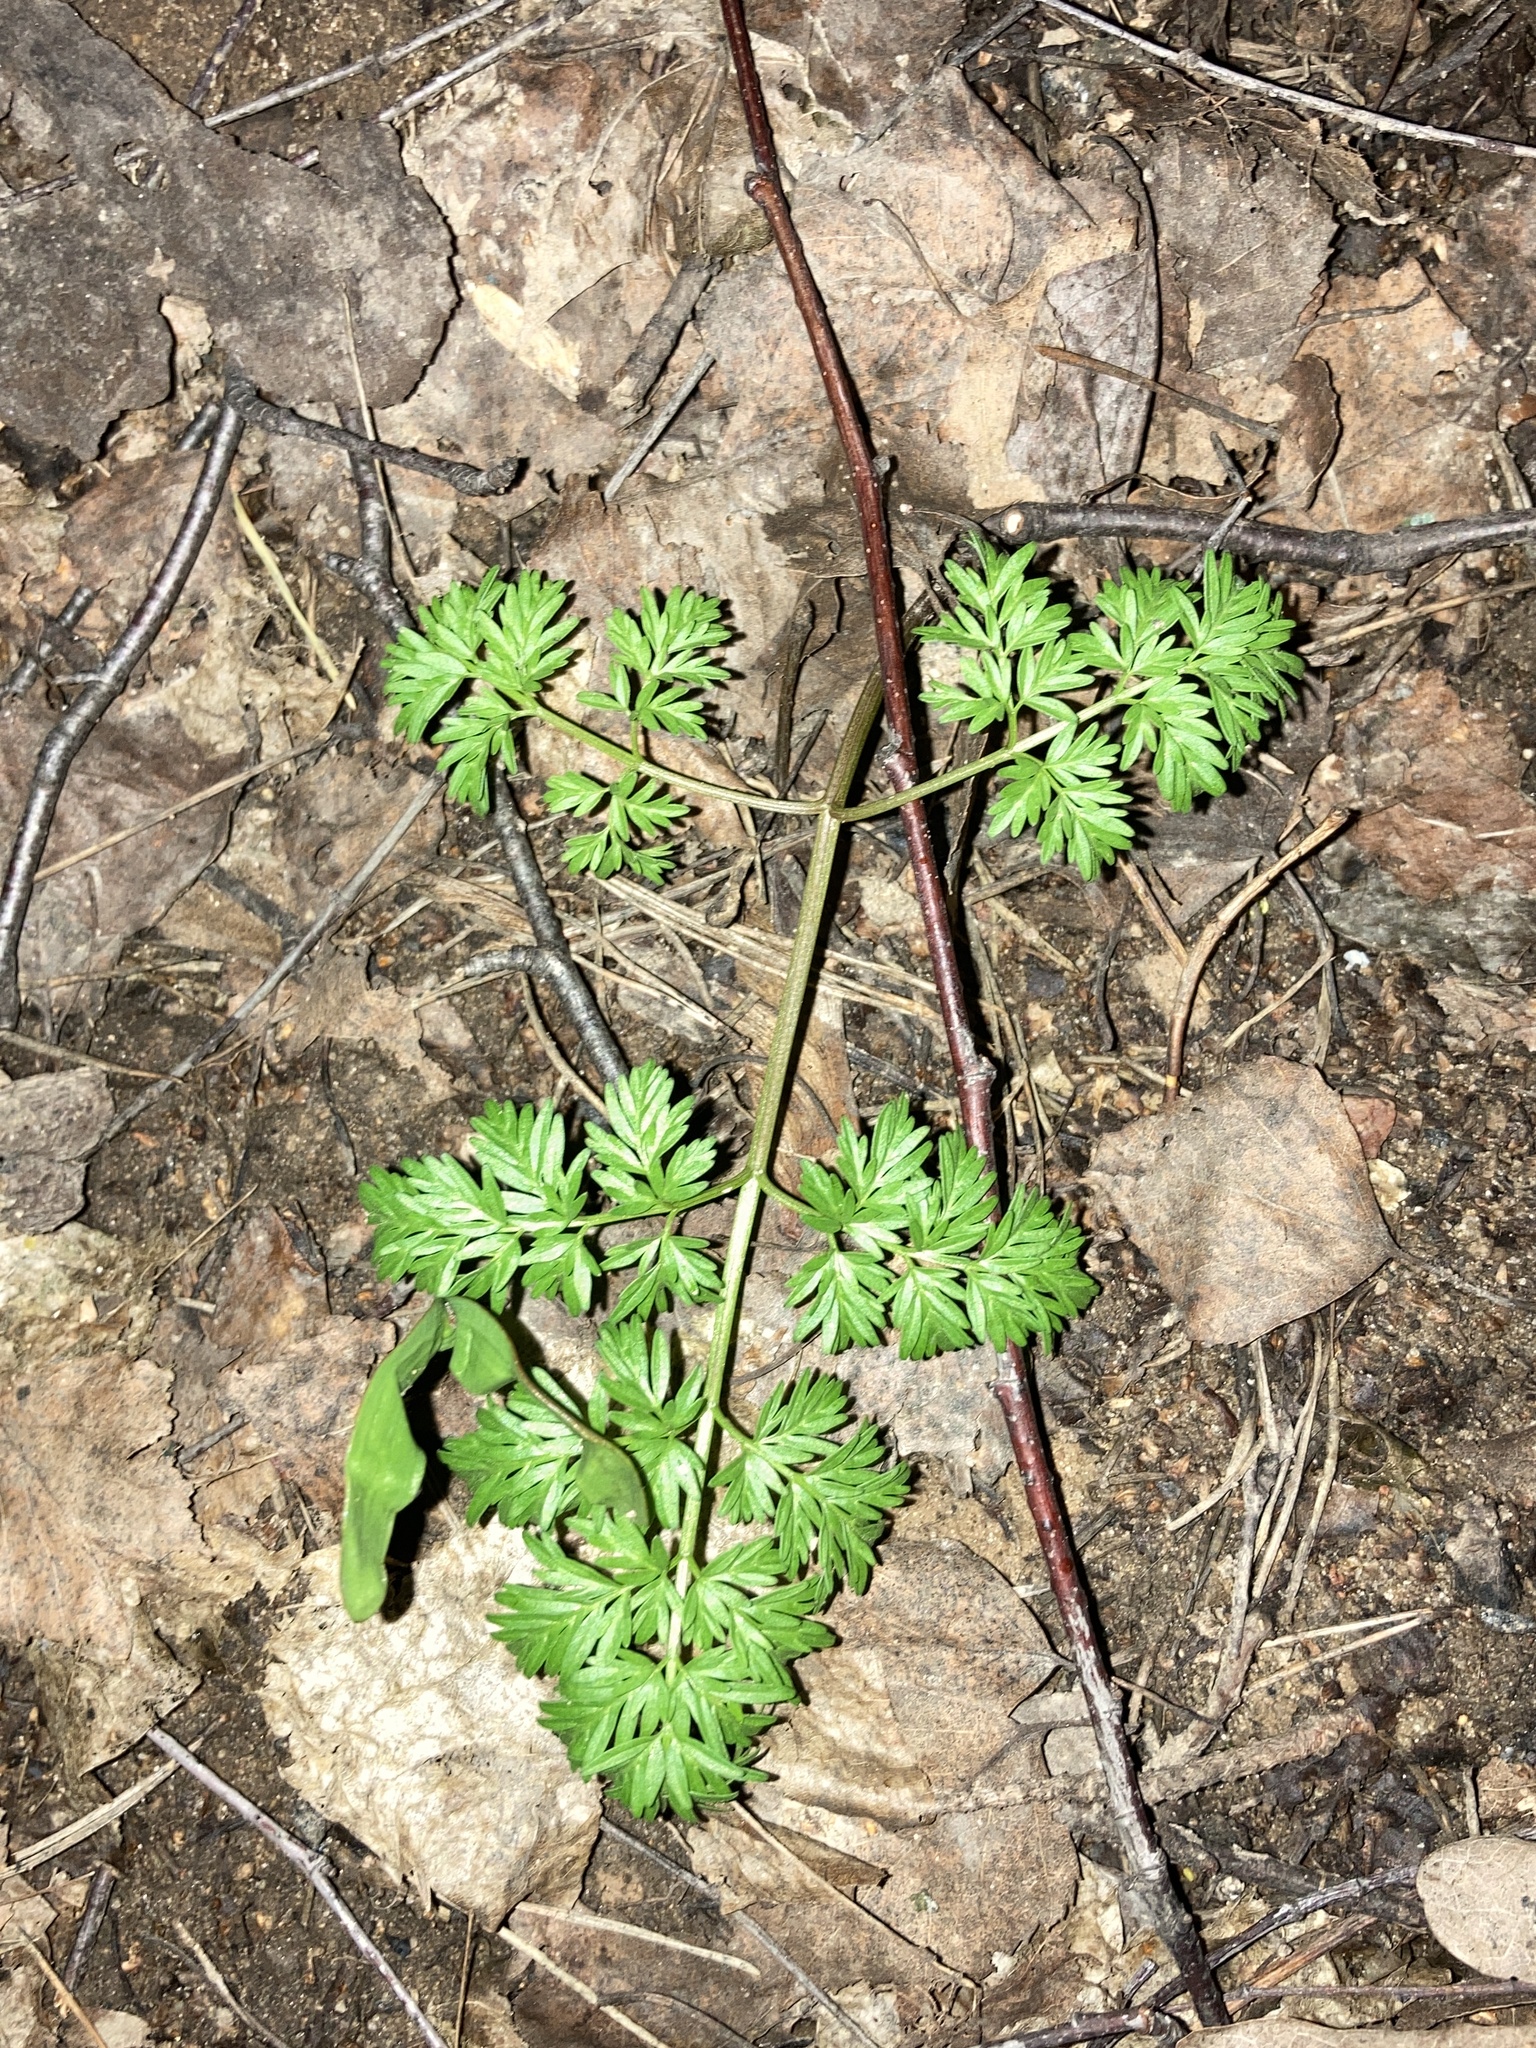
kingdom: Plantae
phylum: Tracheophyta
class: Magnoliopsida
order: Apiales
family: Apiaceae
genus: Anthriscus
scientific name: Anthriscus sylvestris
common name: Cow parsley
